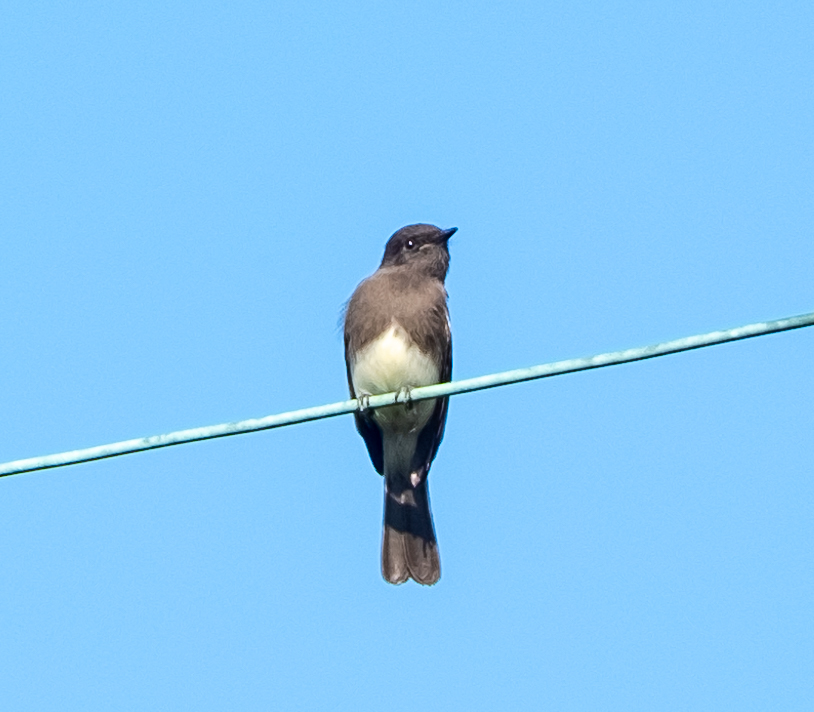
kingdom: Animalia
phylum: Chordata
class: Aves
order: Passeriformes
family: Tyrannidae
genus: Sayornis
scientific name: Sayornis nigricans
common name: Black phoebe
